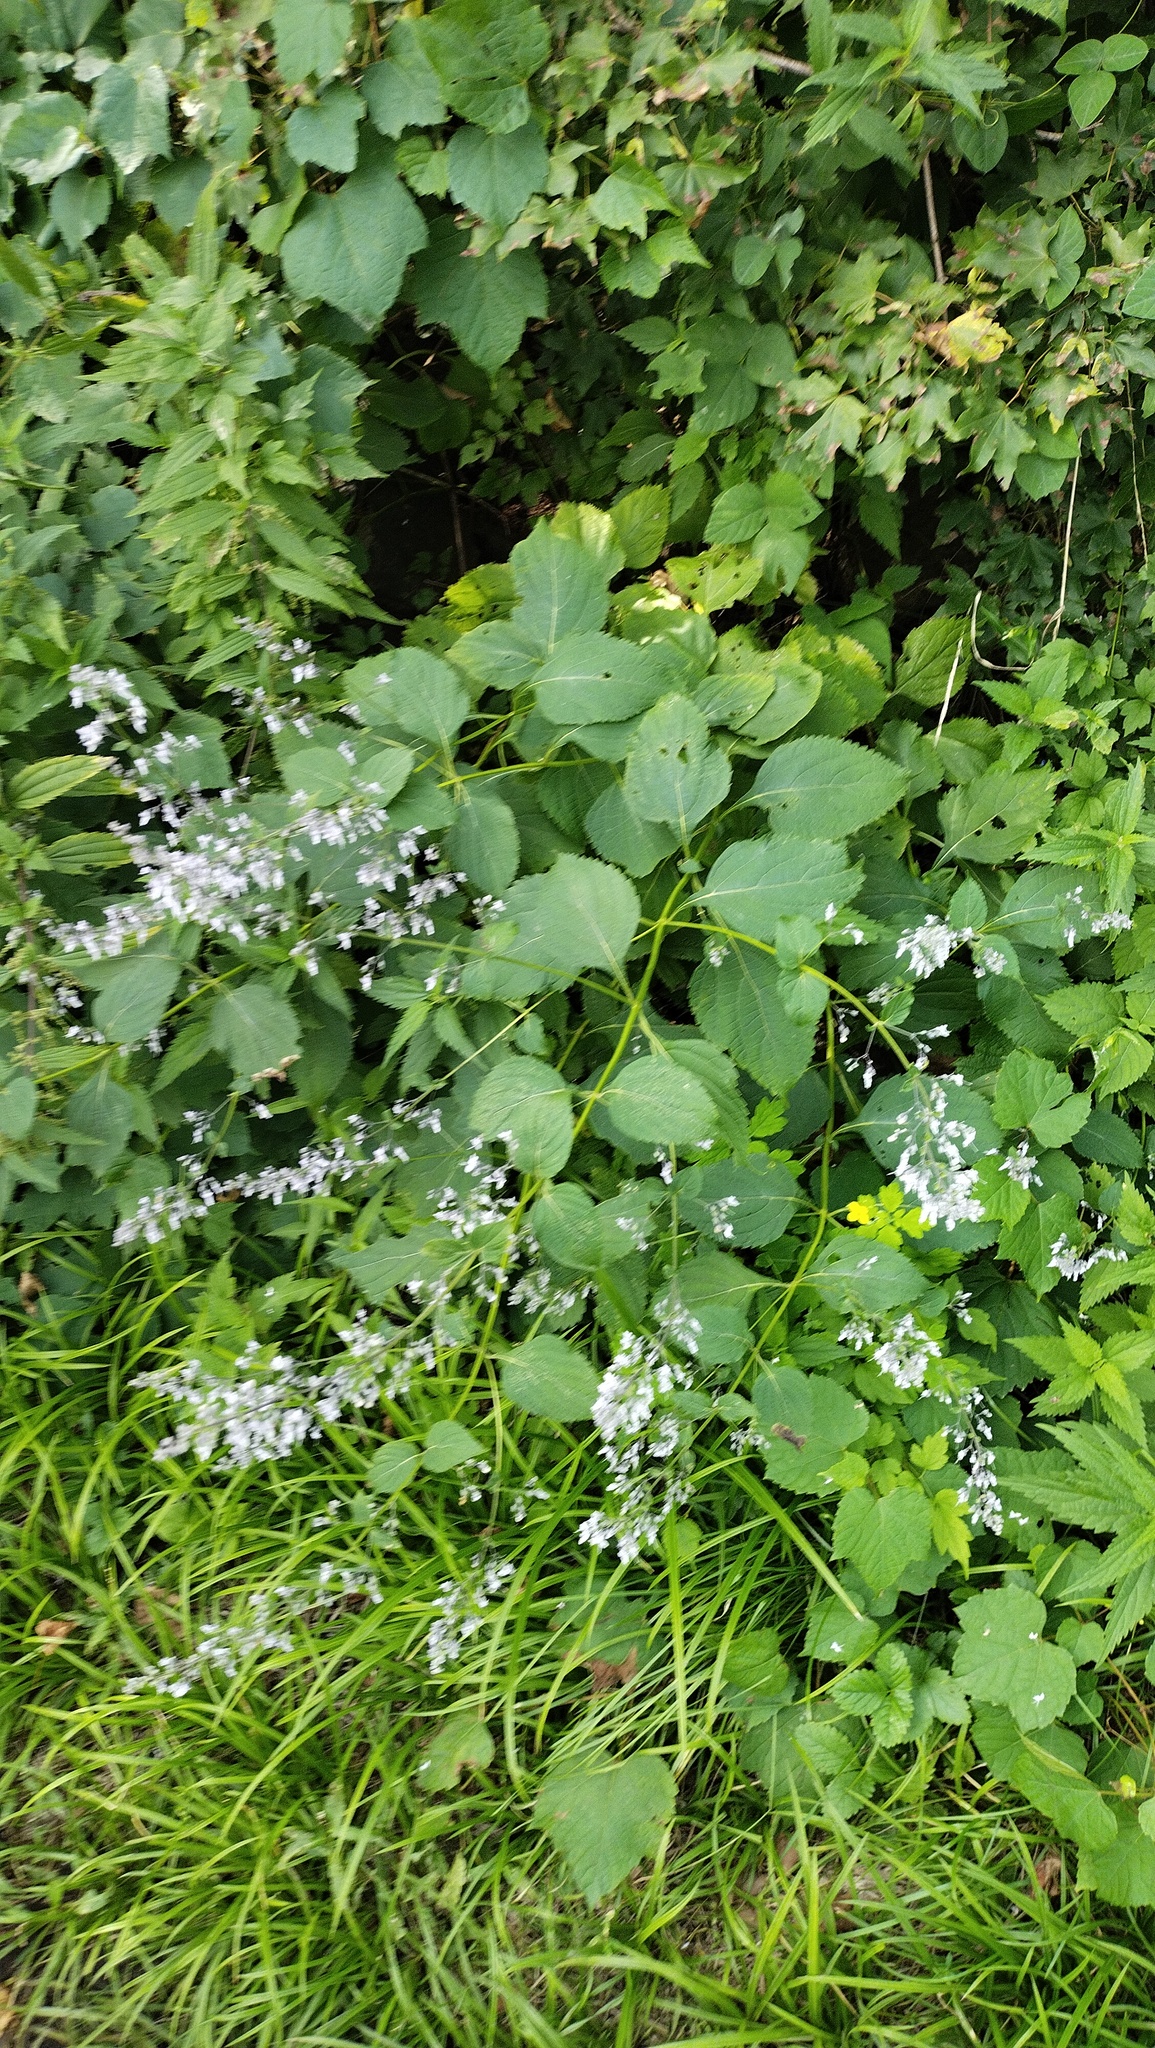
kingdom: Plantae
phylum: Tracheophyta
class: Magnoliopsida
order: Lamiales
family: Lamiaceae
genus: Isodon
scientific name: Isodon japonicus
